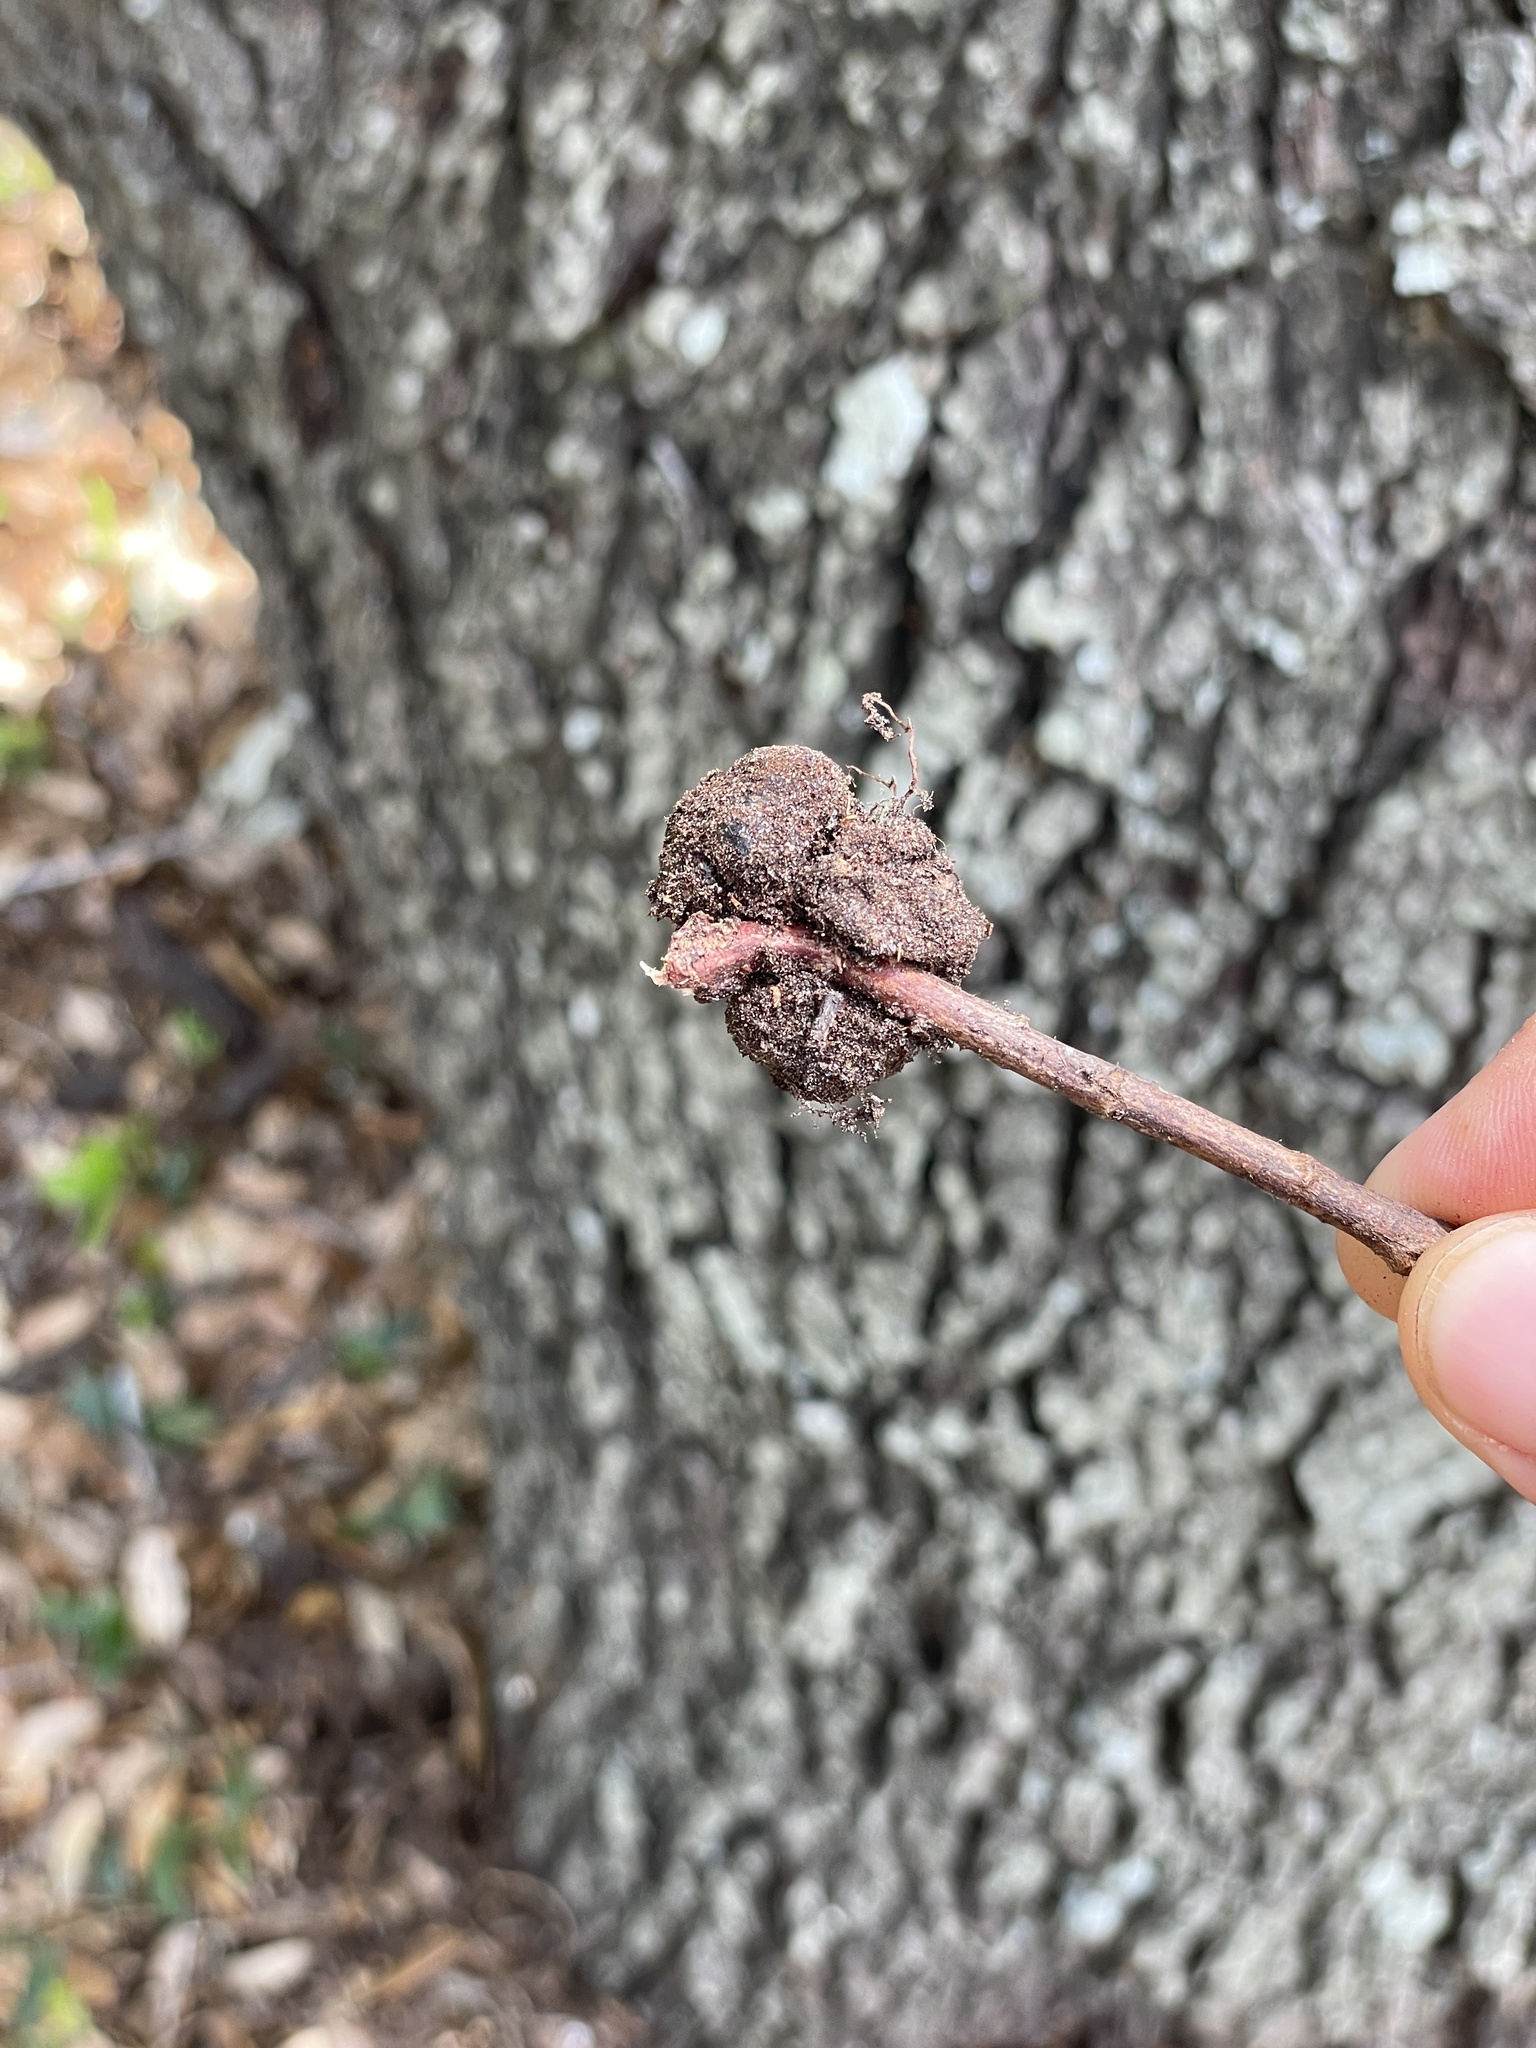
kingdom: Animalia
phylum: Arthropoda
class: Insecta
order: Hymenoptera
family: Cynipidae
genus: Belonocnema
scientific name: Belonocnema kinseyi
